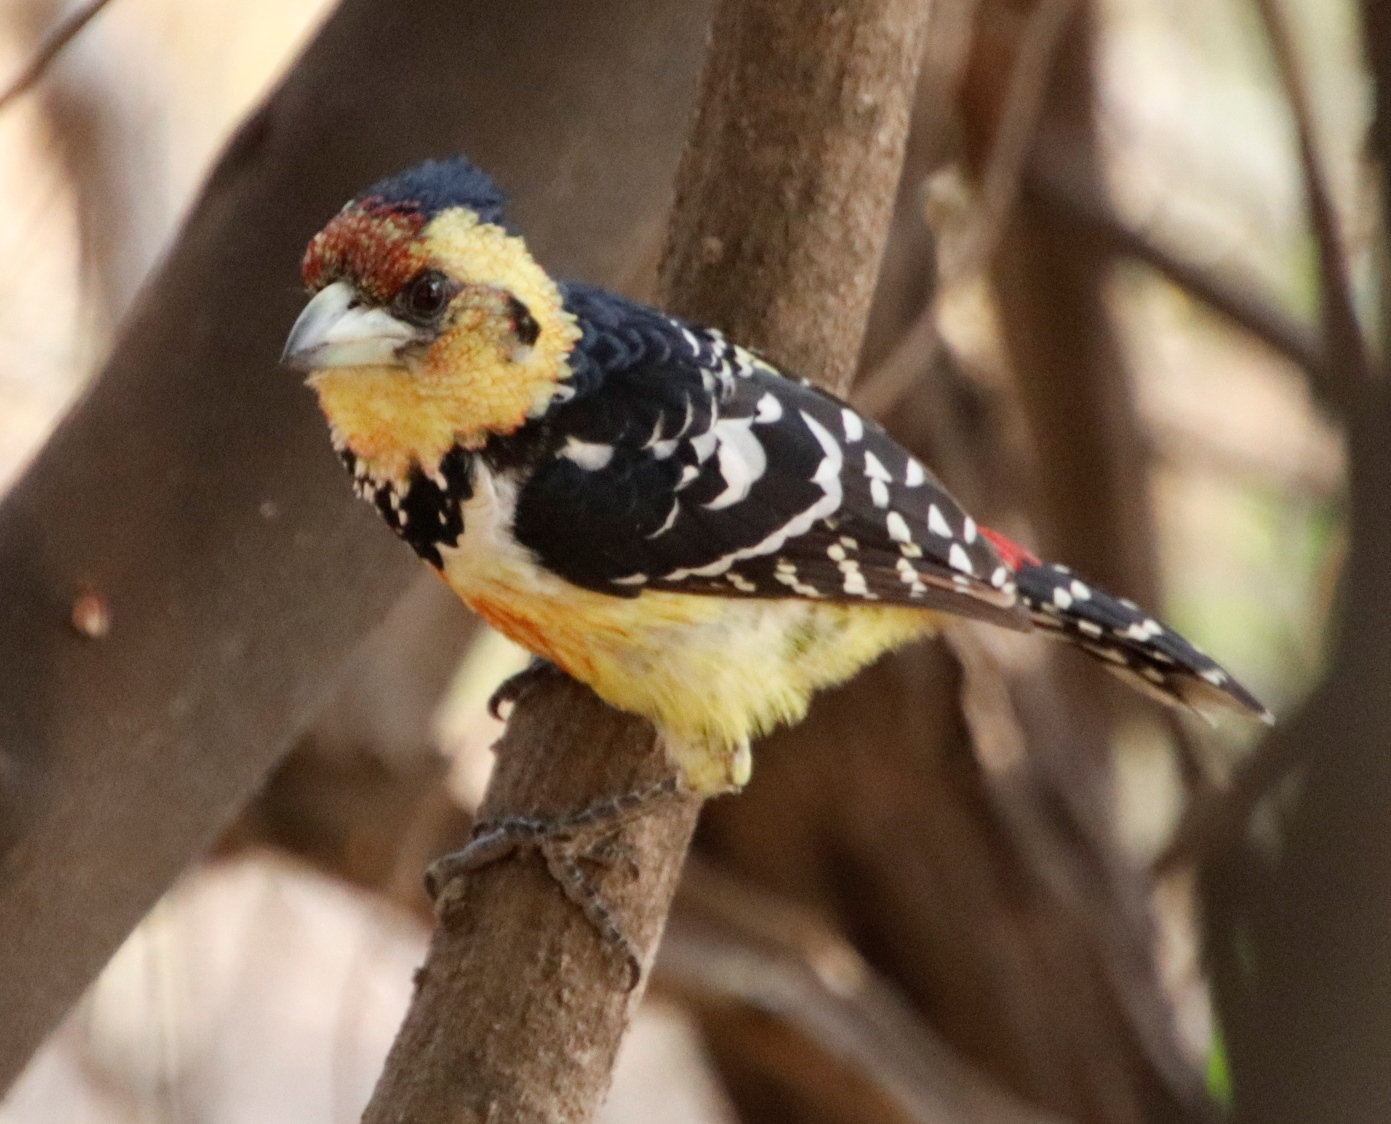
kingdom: Animalia
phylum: Chordata
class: Aves
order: Piciformes
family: Lybiidae
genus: Trachyphonus
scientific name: Trachyphonus vaillantii
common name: Crested barbet
